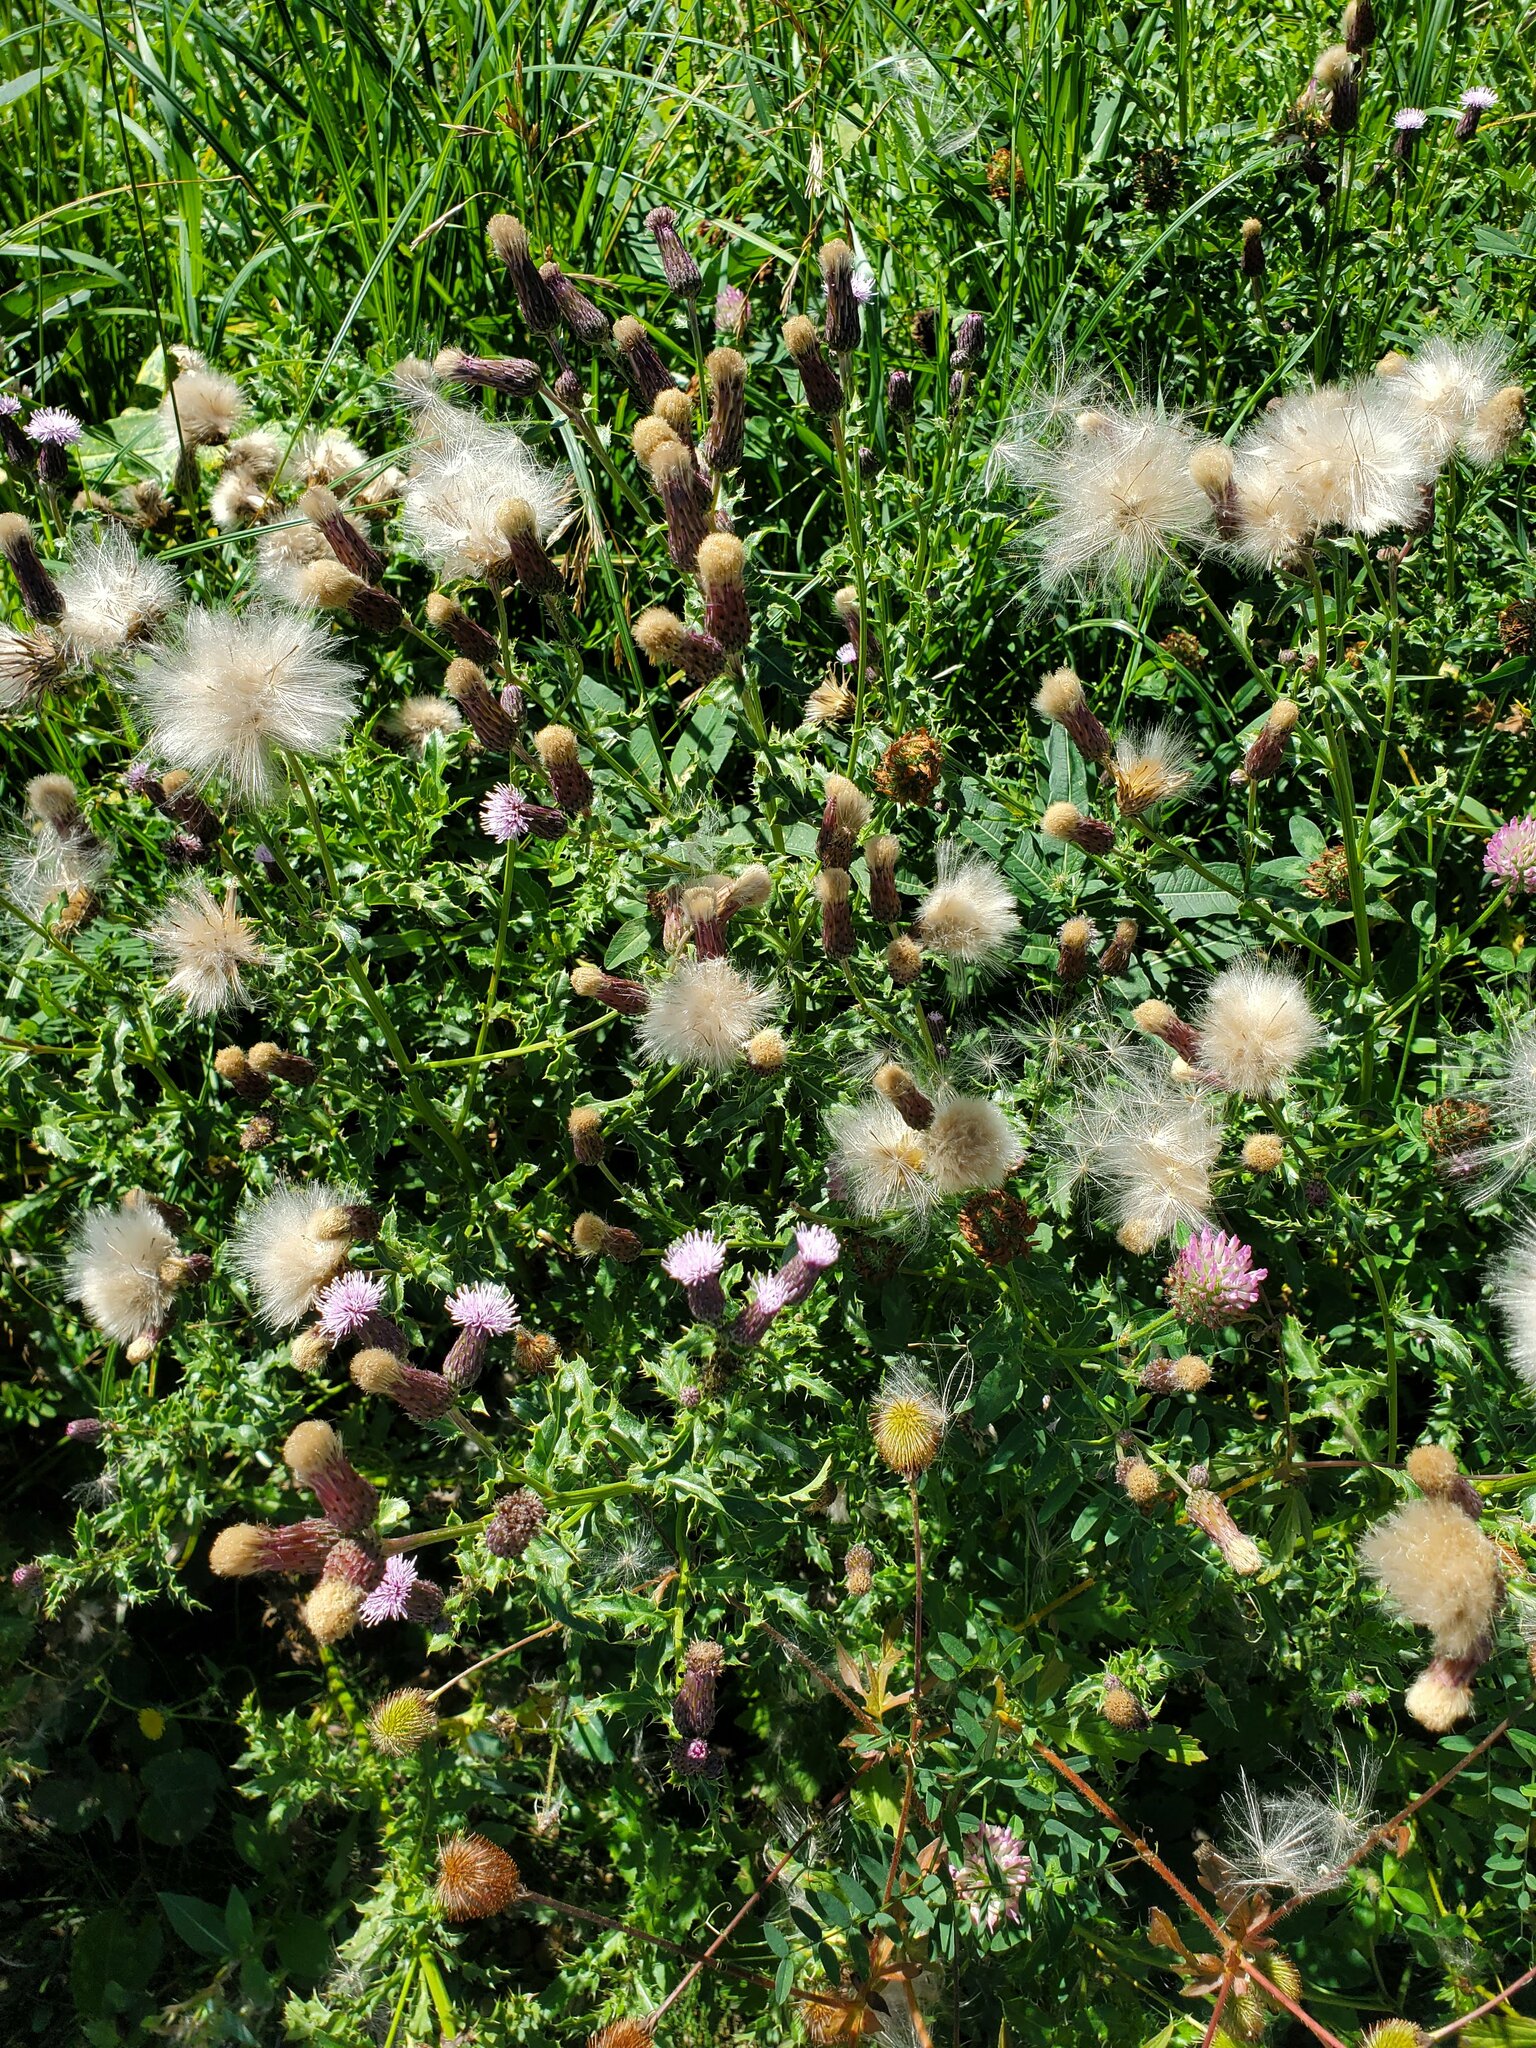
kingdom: Plantae
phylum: Tracheophyta
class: Magnoliopsida
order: Asterales
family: Asteraceae
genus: Cirsium
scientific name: Cirsium arvense
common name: Creeping thistle
